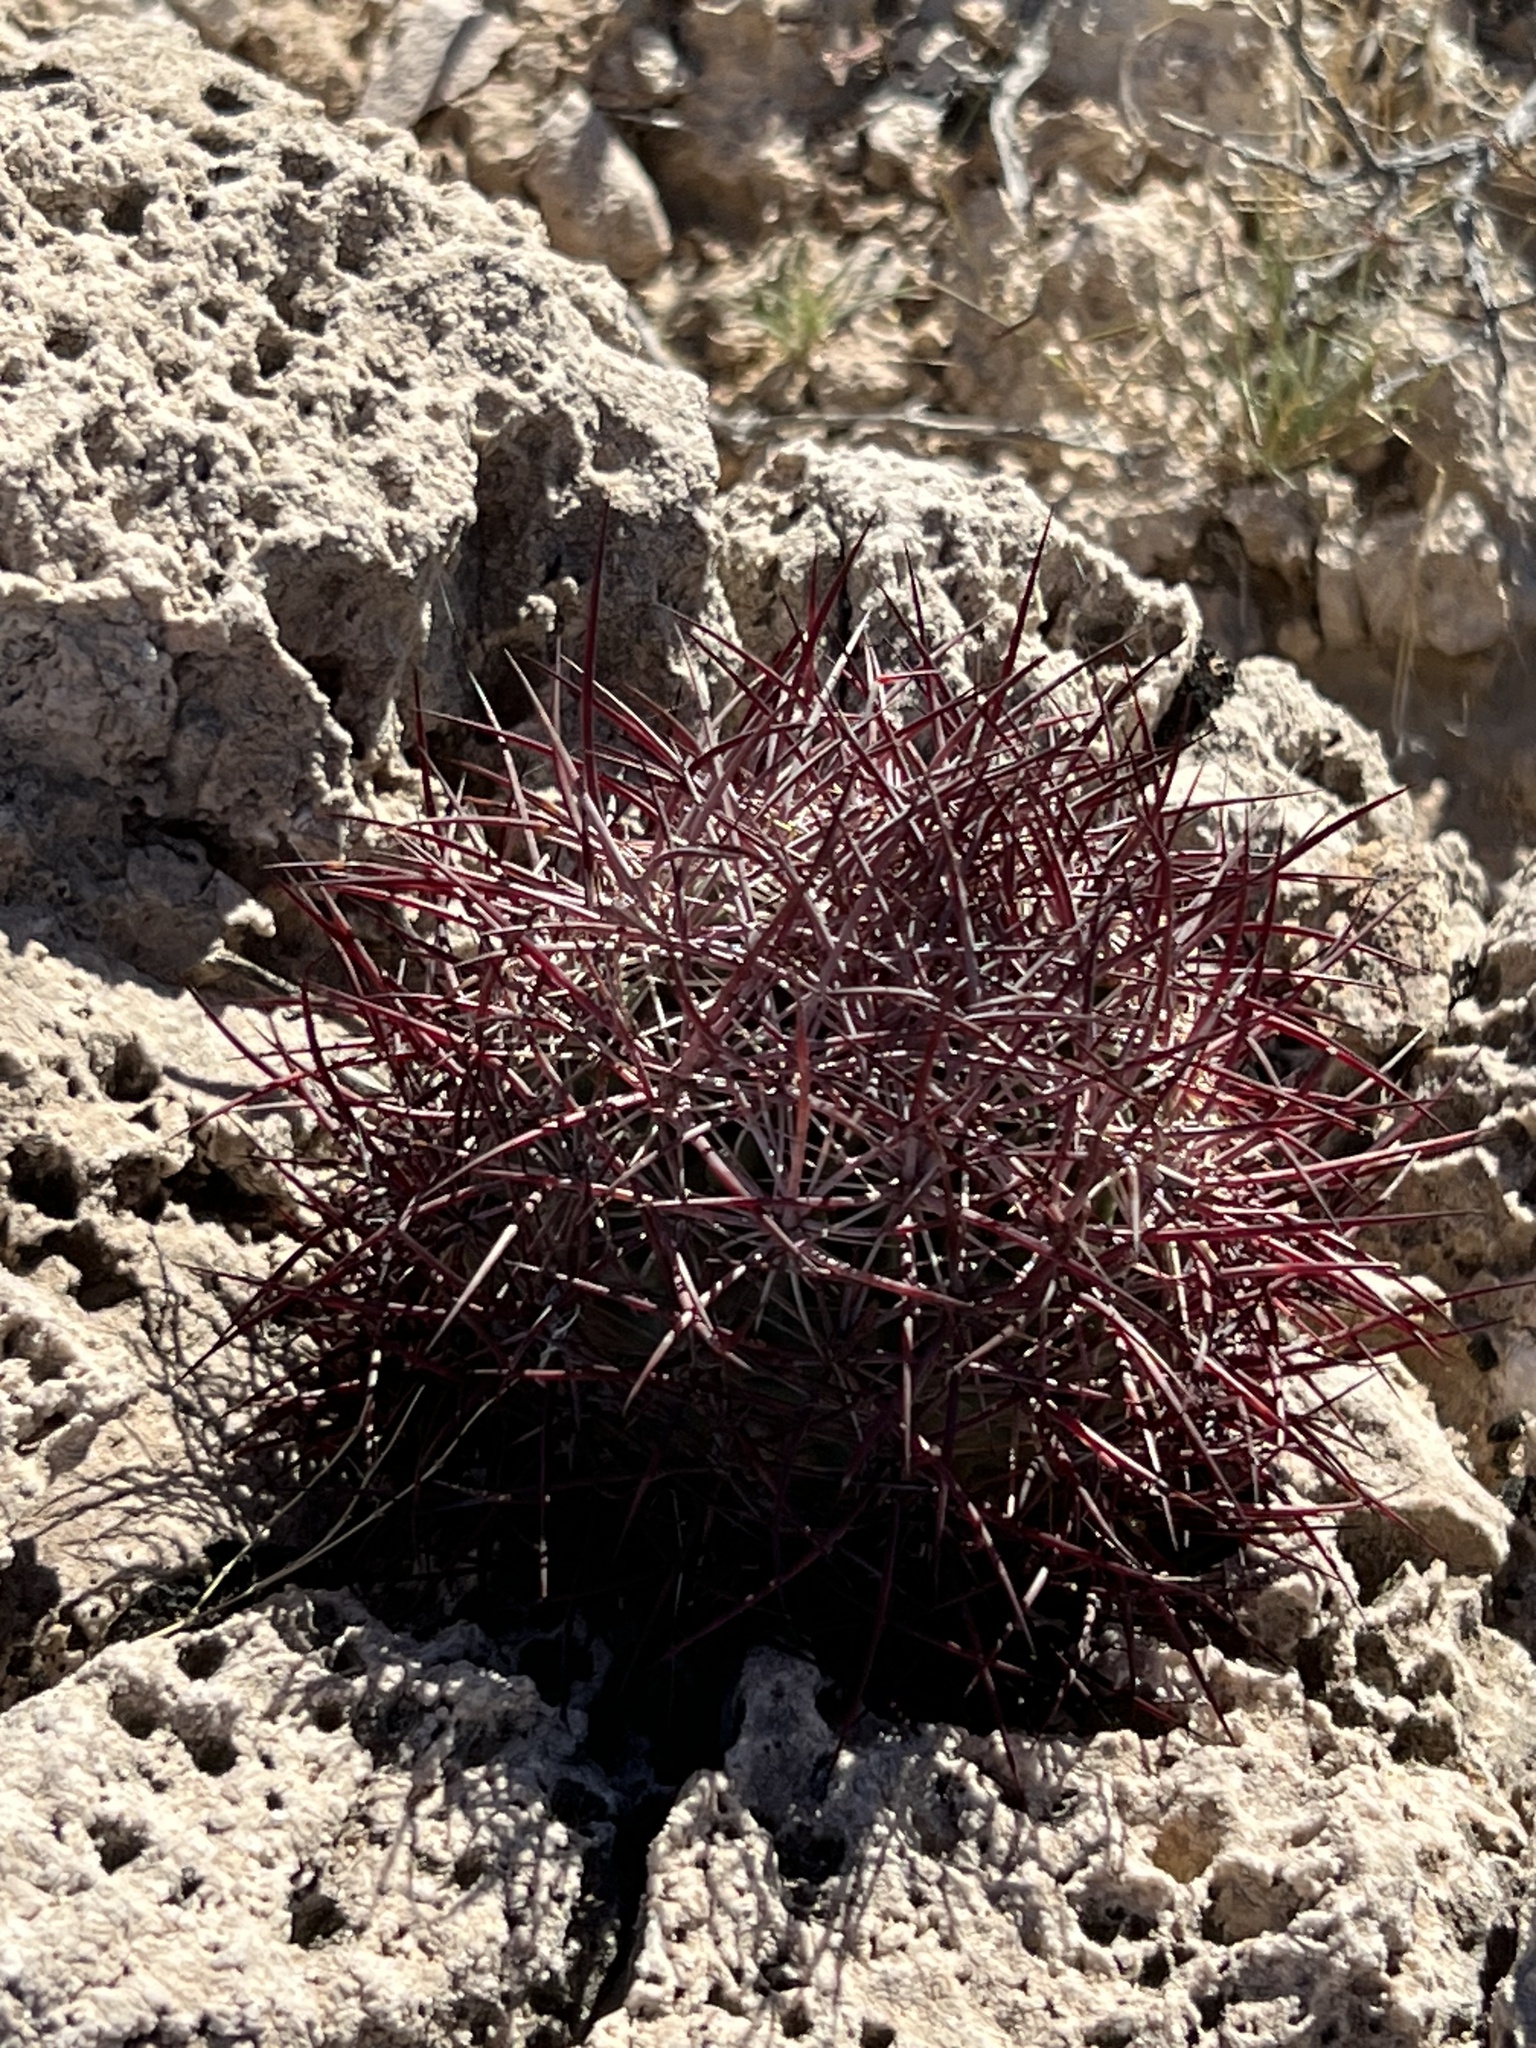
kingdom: Plantae
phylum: Tracheophyta
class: Magnoliopsida
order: Caryophyllales
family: Cactaceae
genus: Sclerocactus
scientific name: Sclerocactus johnsonii
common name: Eight-spine fishhook cactus
